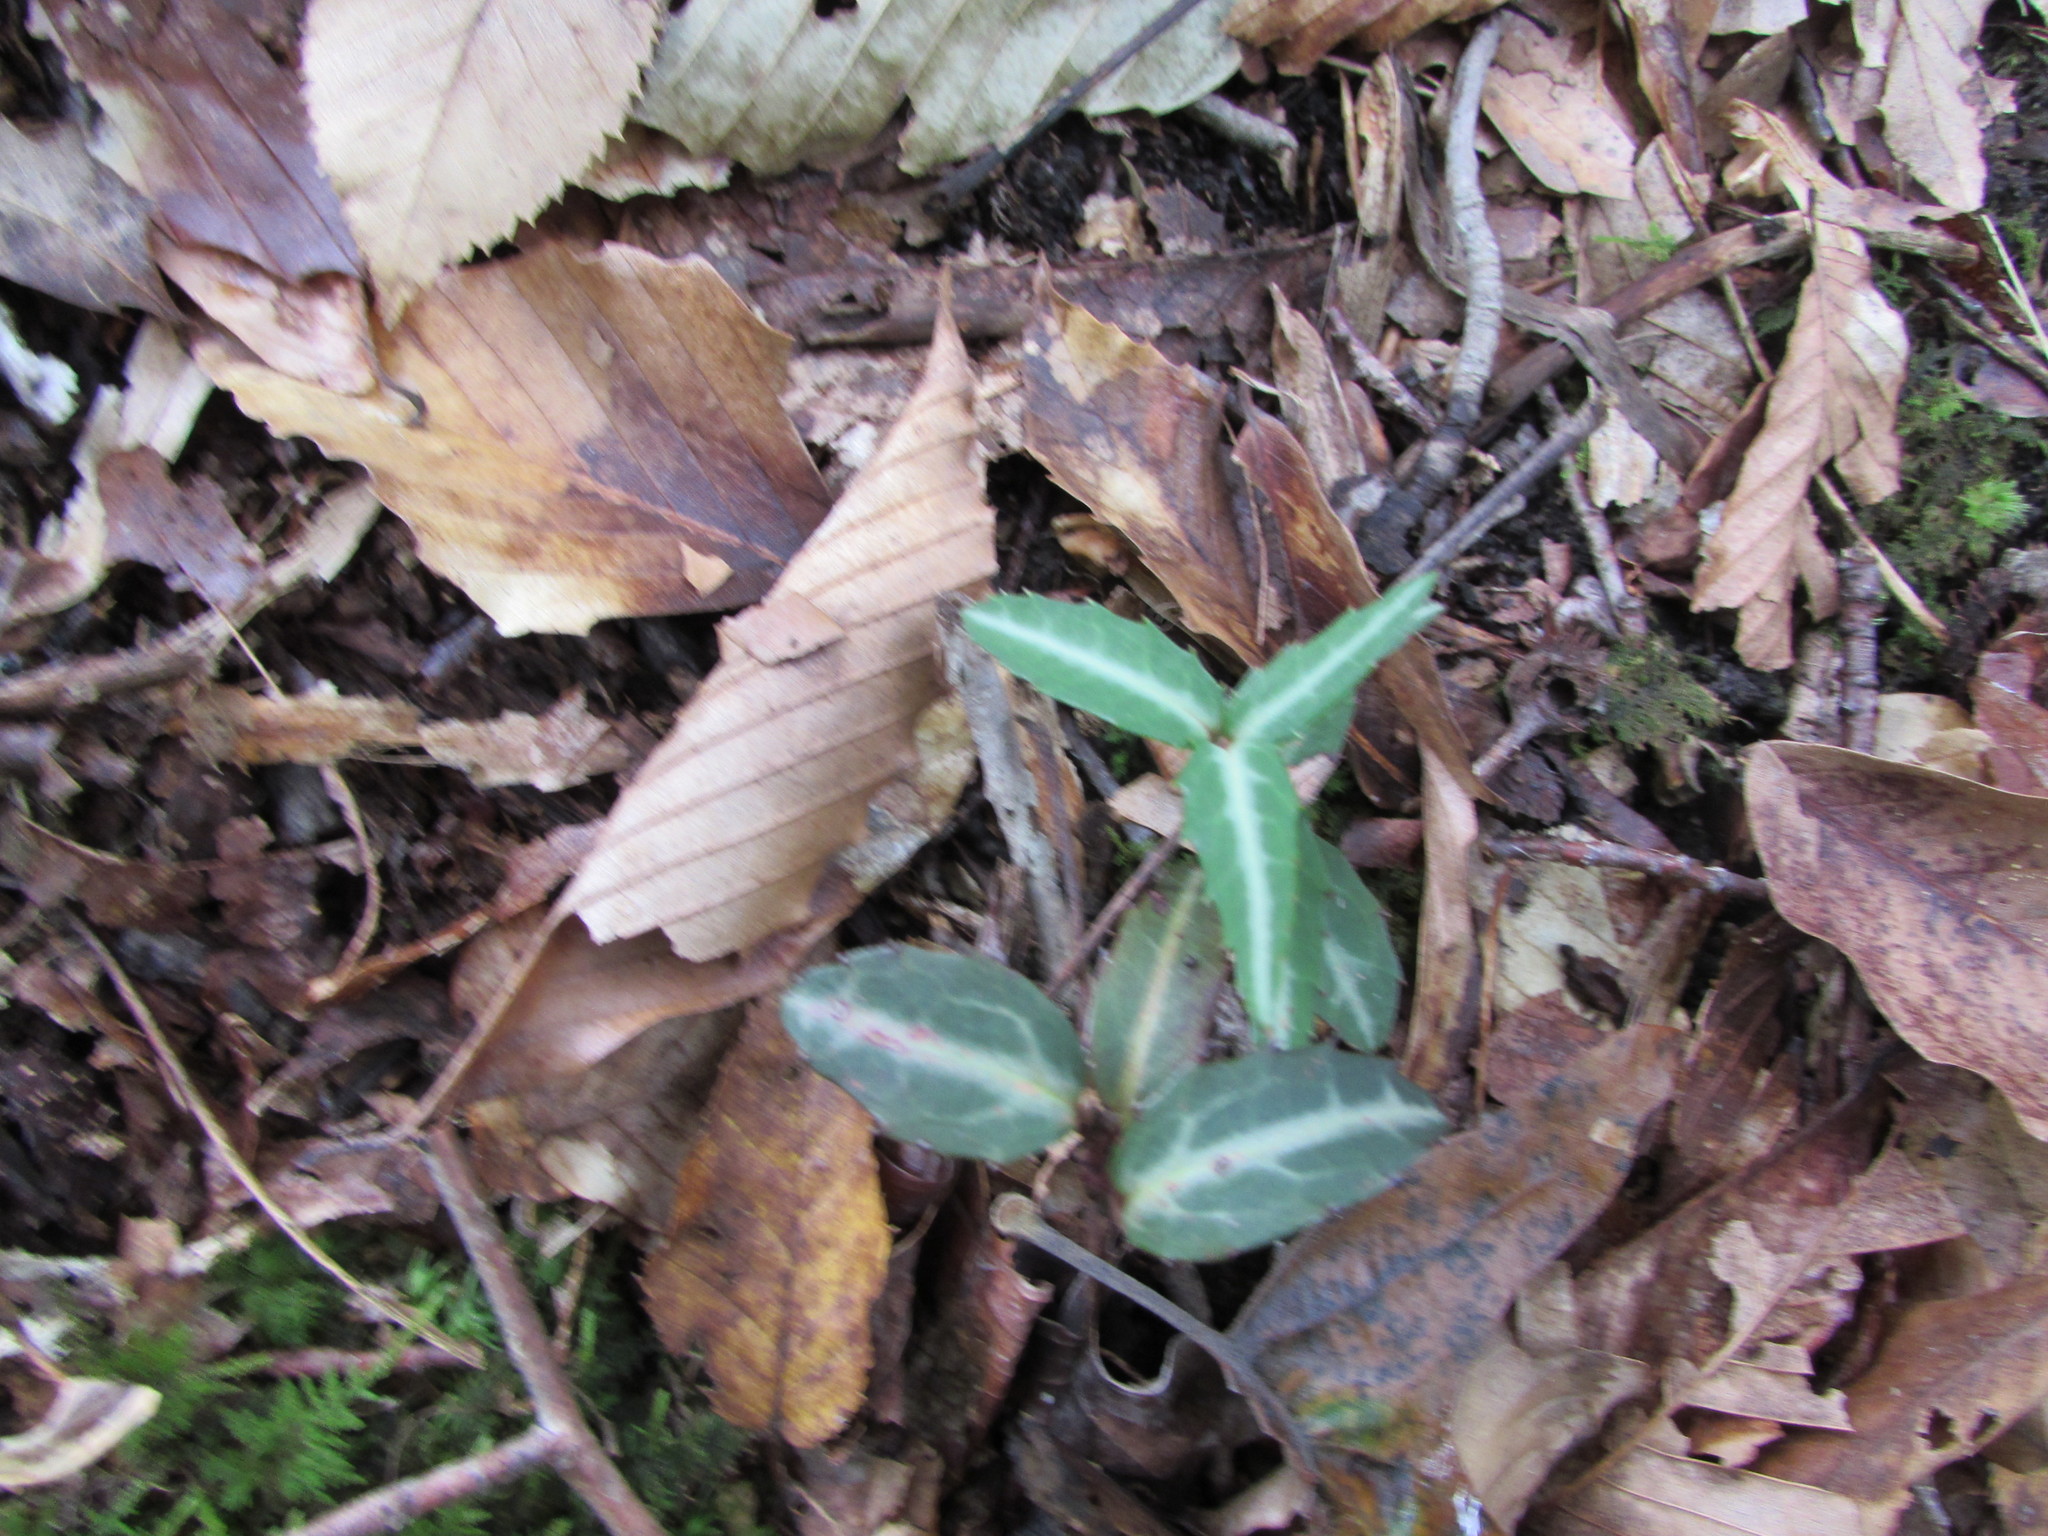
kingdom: Plantae
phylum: Tracheophyta
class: Magnoliopsida
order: Ericales
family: Ericaceae
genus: Chimaphila
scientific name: Chimaphila maculata
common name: Spotted pipsissewa
